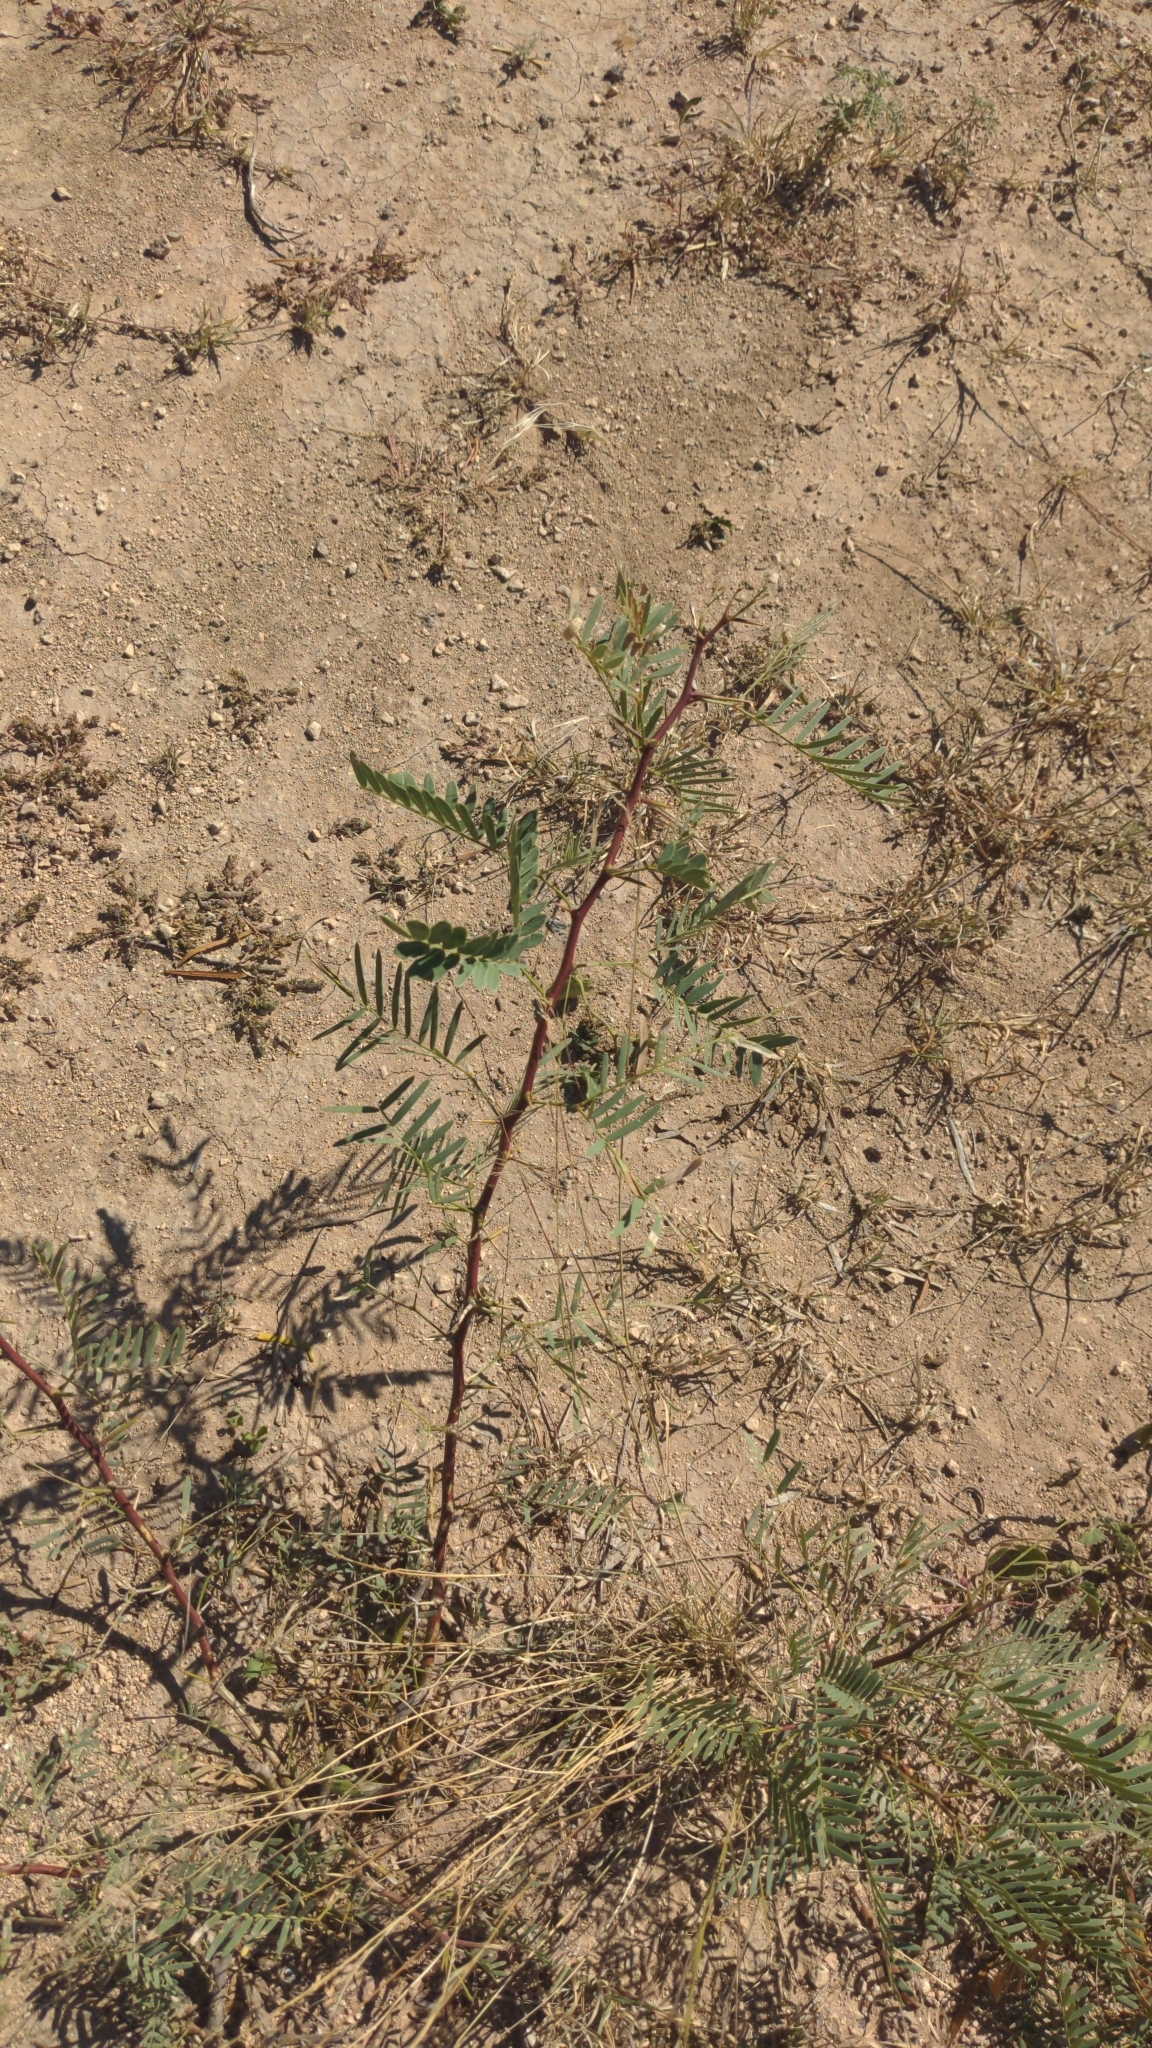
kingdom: Plantae
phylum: Tracheophyta
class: Magnoliopsida
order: Fabales
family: Fabaceae
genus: Prosopis
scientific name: Prosopis glandulosa
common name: Honey mesquite
